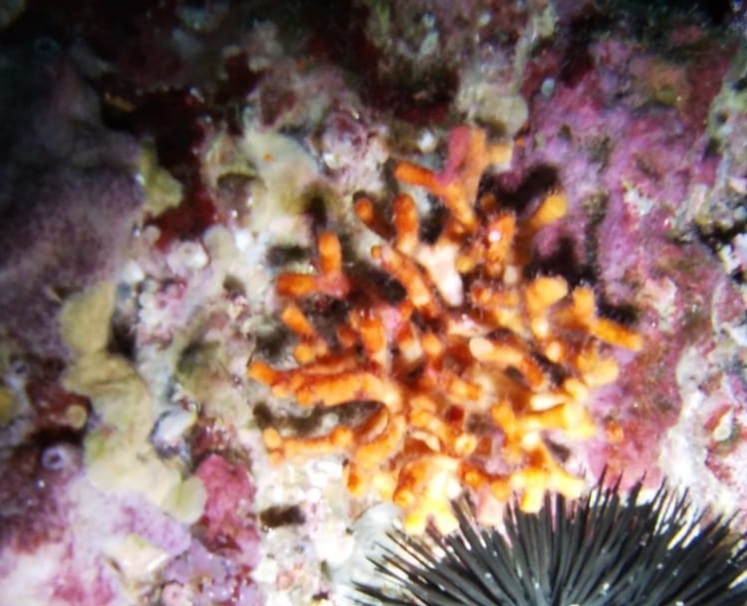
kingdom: Animalia
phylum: Bryozoa
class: Gymnolaemata
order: Cheilostomatida
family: Myriaporidae
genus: Myriapora
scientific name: Myriapora truncata
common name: False coral
